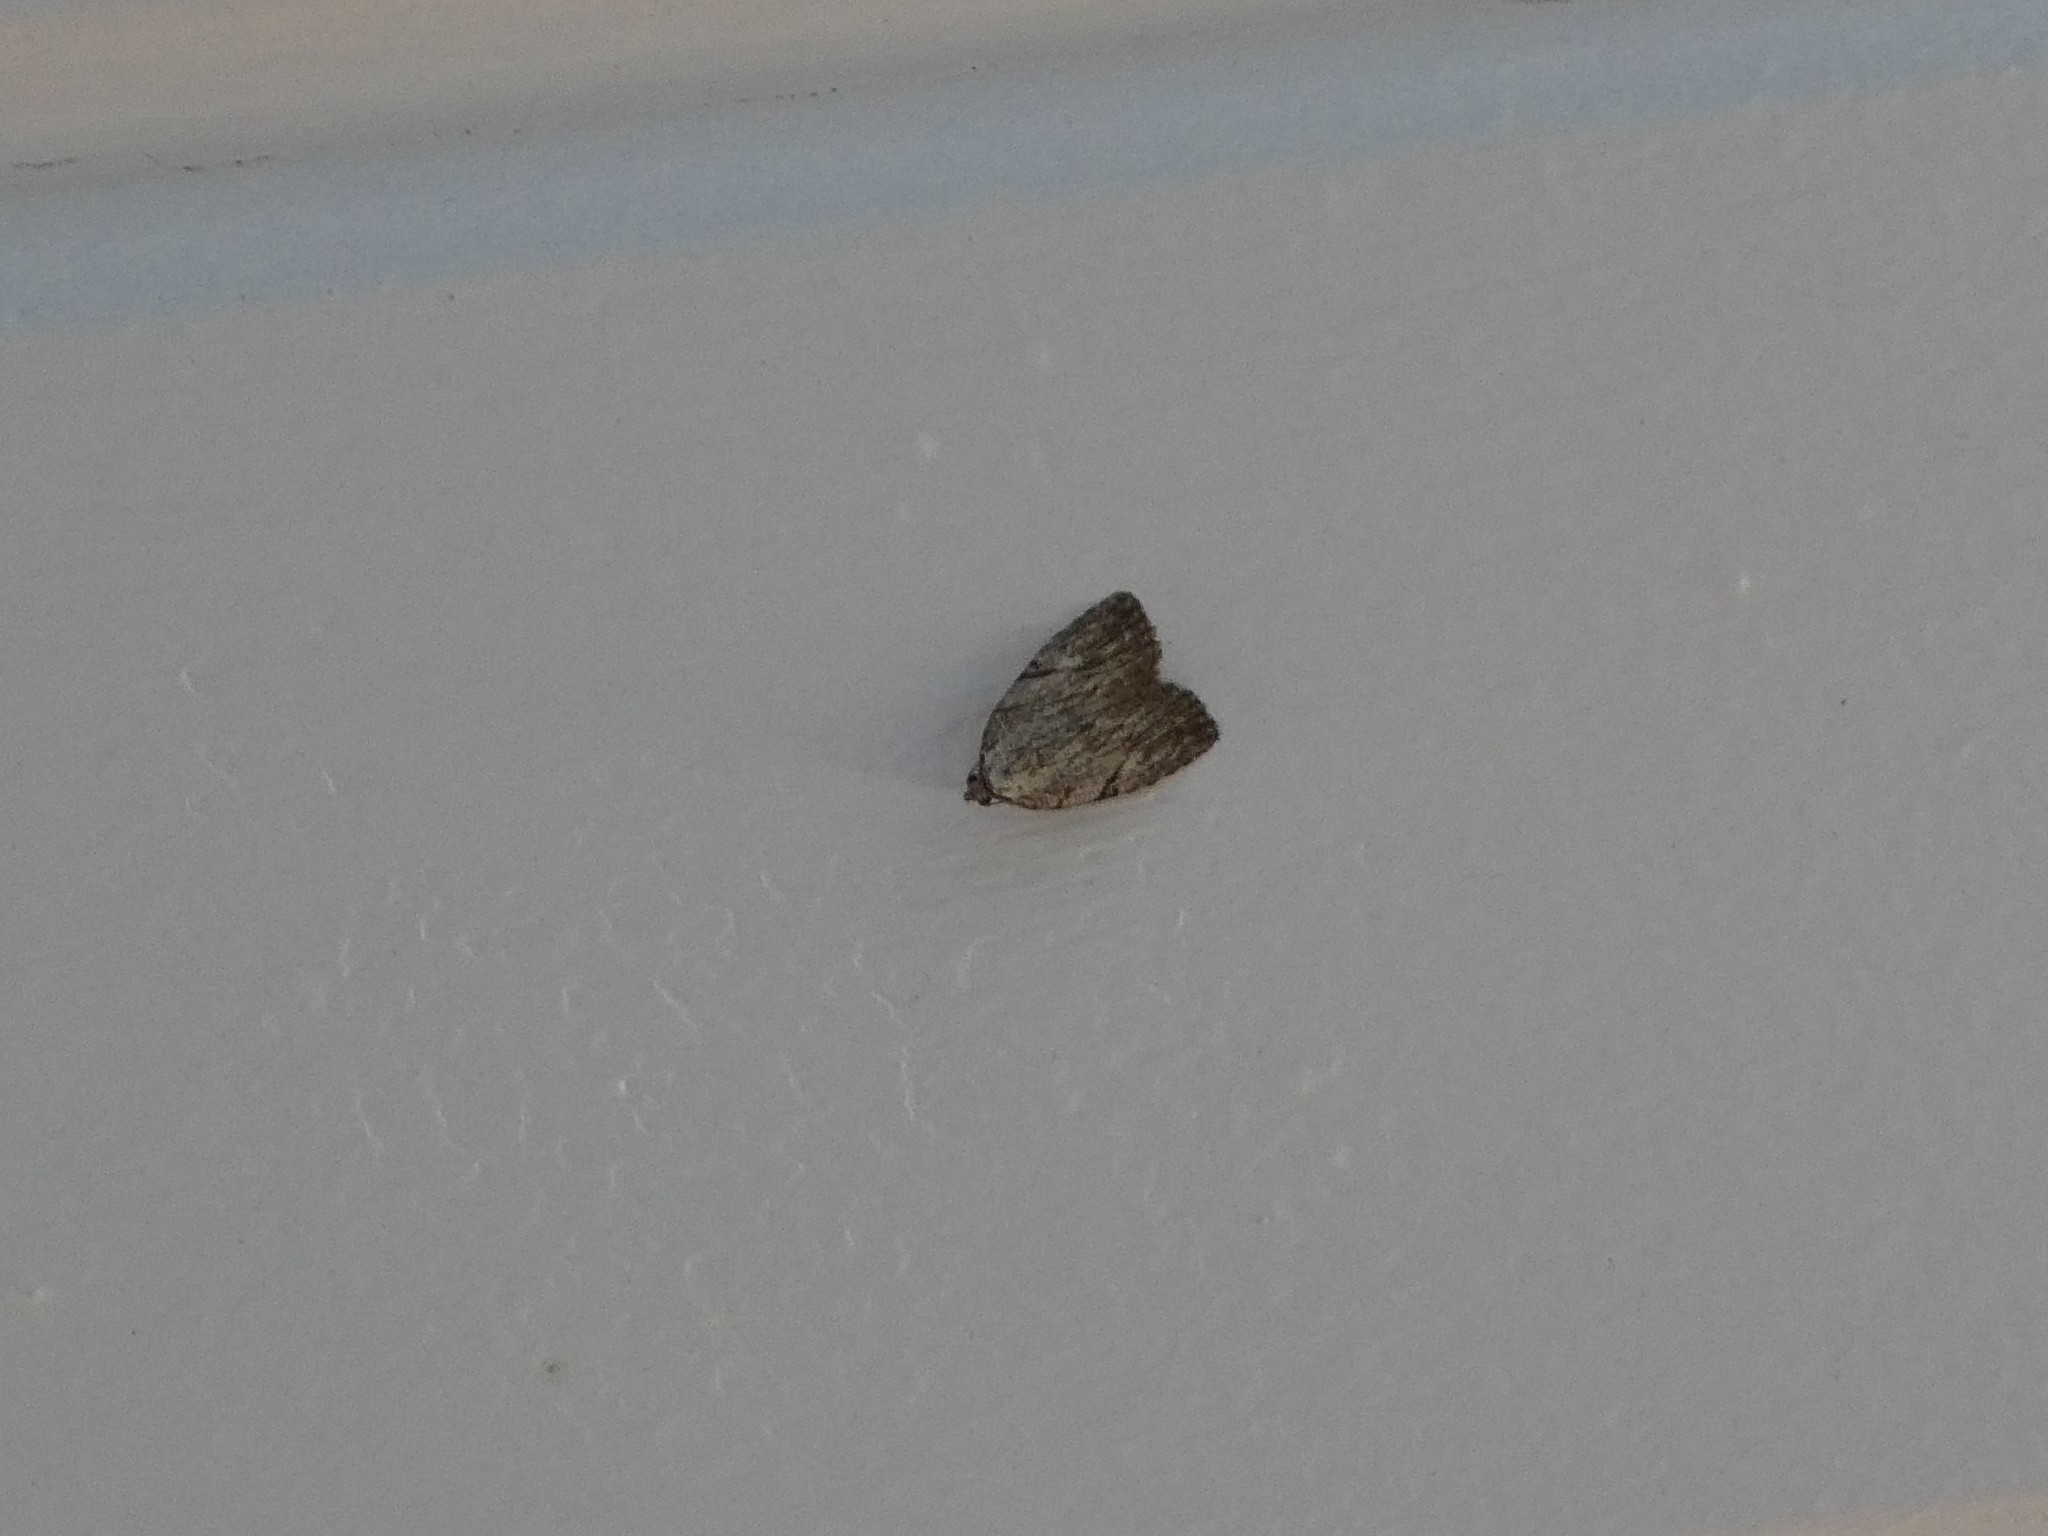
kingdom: Animalia
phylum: Arthropoda
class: Insecta
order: Lepidoptera
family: Noctuidae
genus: Balsa
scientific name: Balsa tristrigella
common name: Three-lined balsa moth
